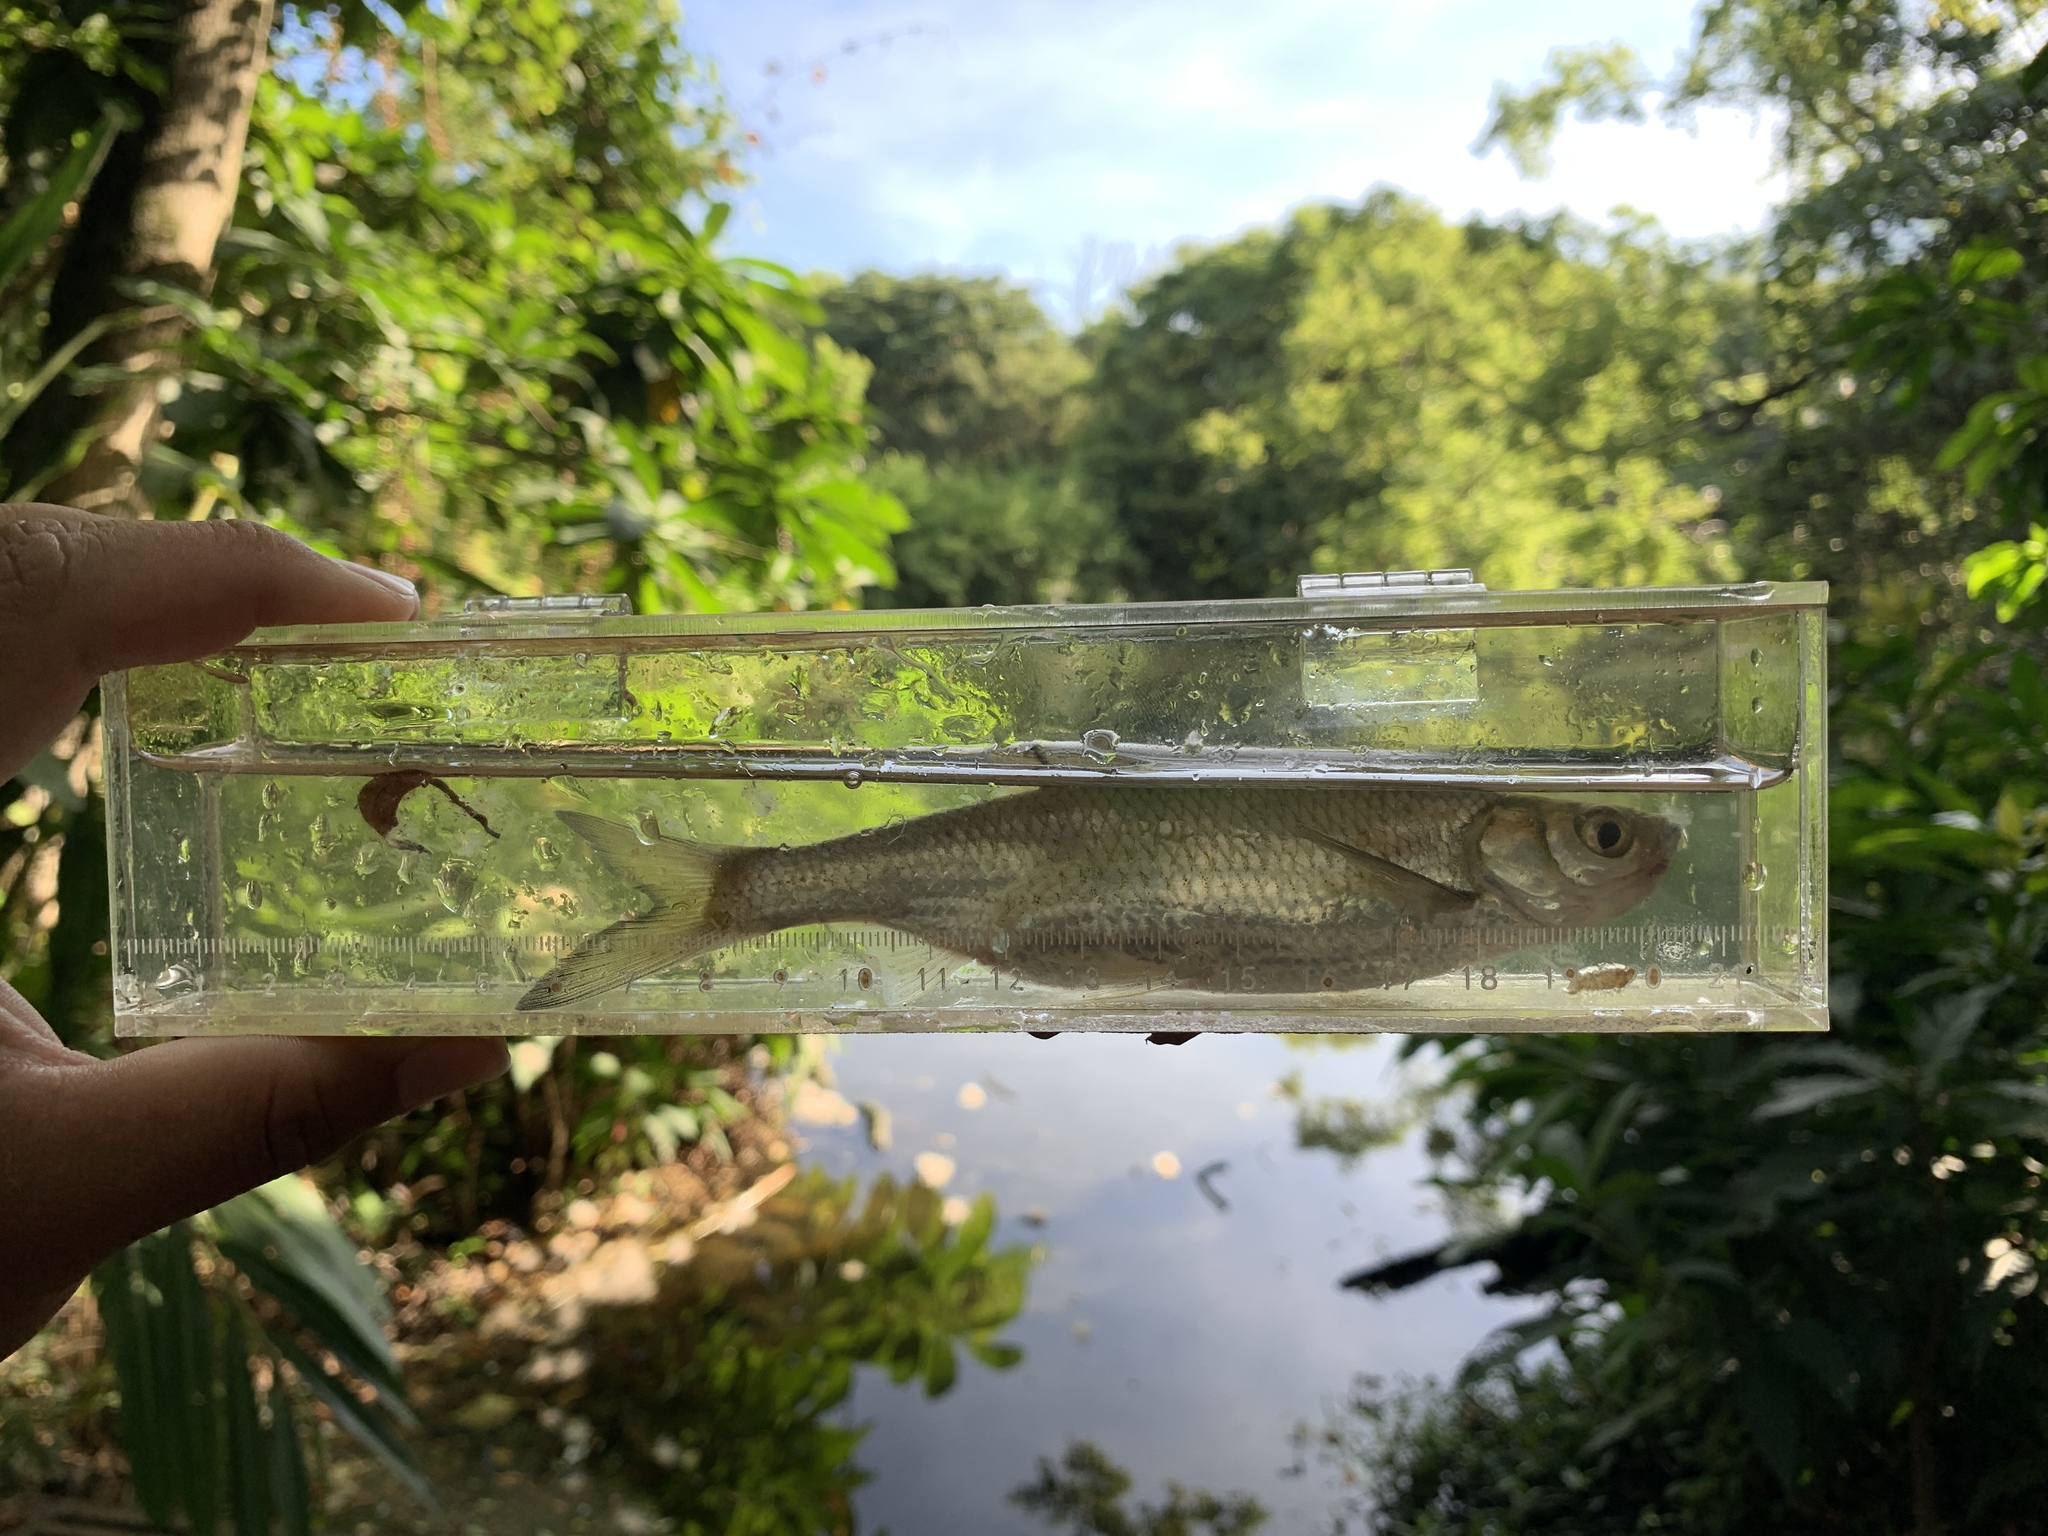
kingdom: Animalia
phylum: Chordata
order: Cypriniformes
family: Cyprinidae
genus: Hemiculter
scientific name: Hemiculter leucisculus
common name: Common sawbelly
